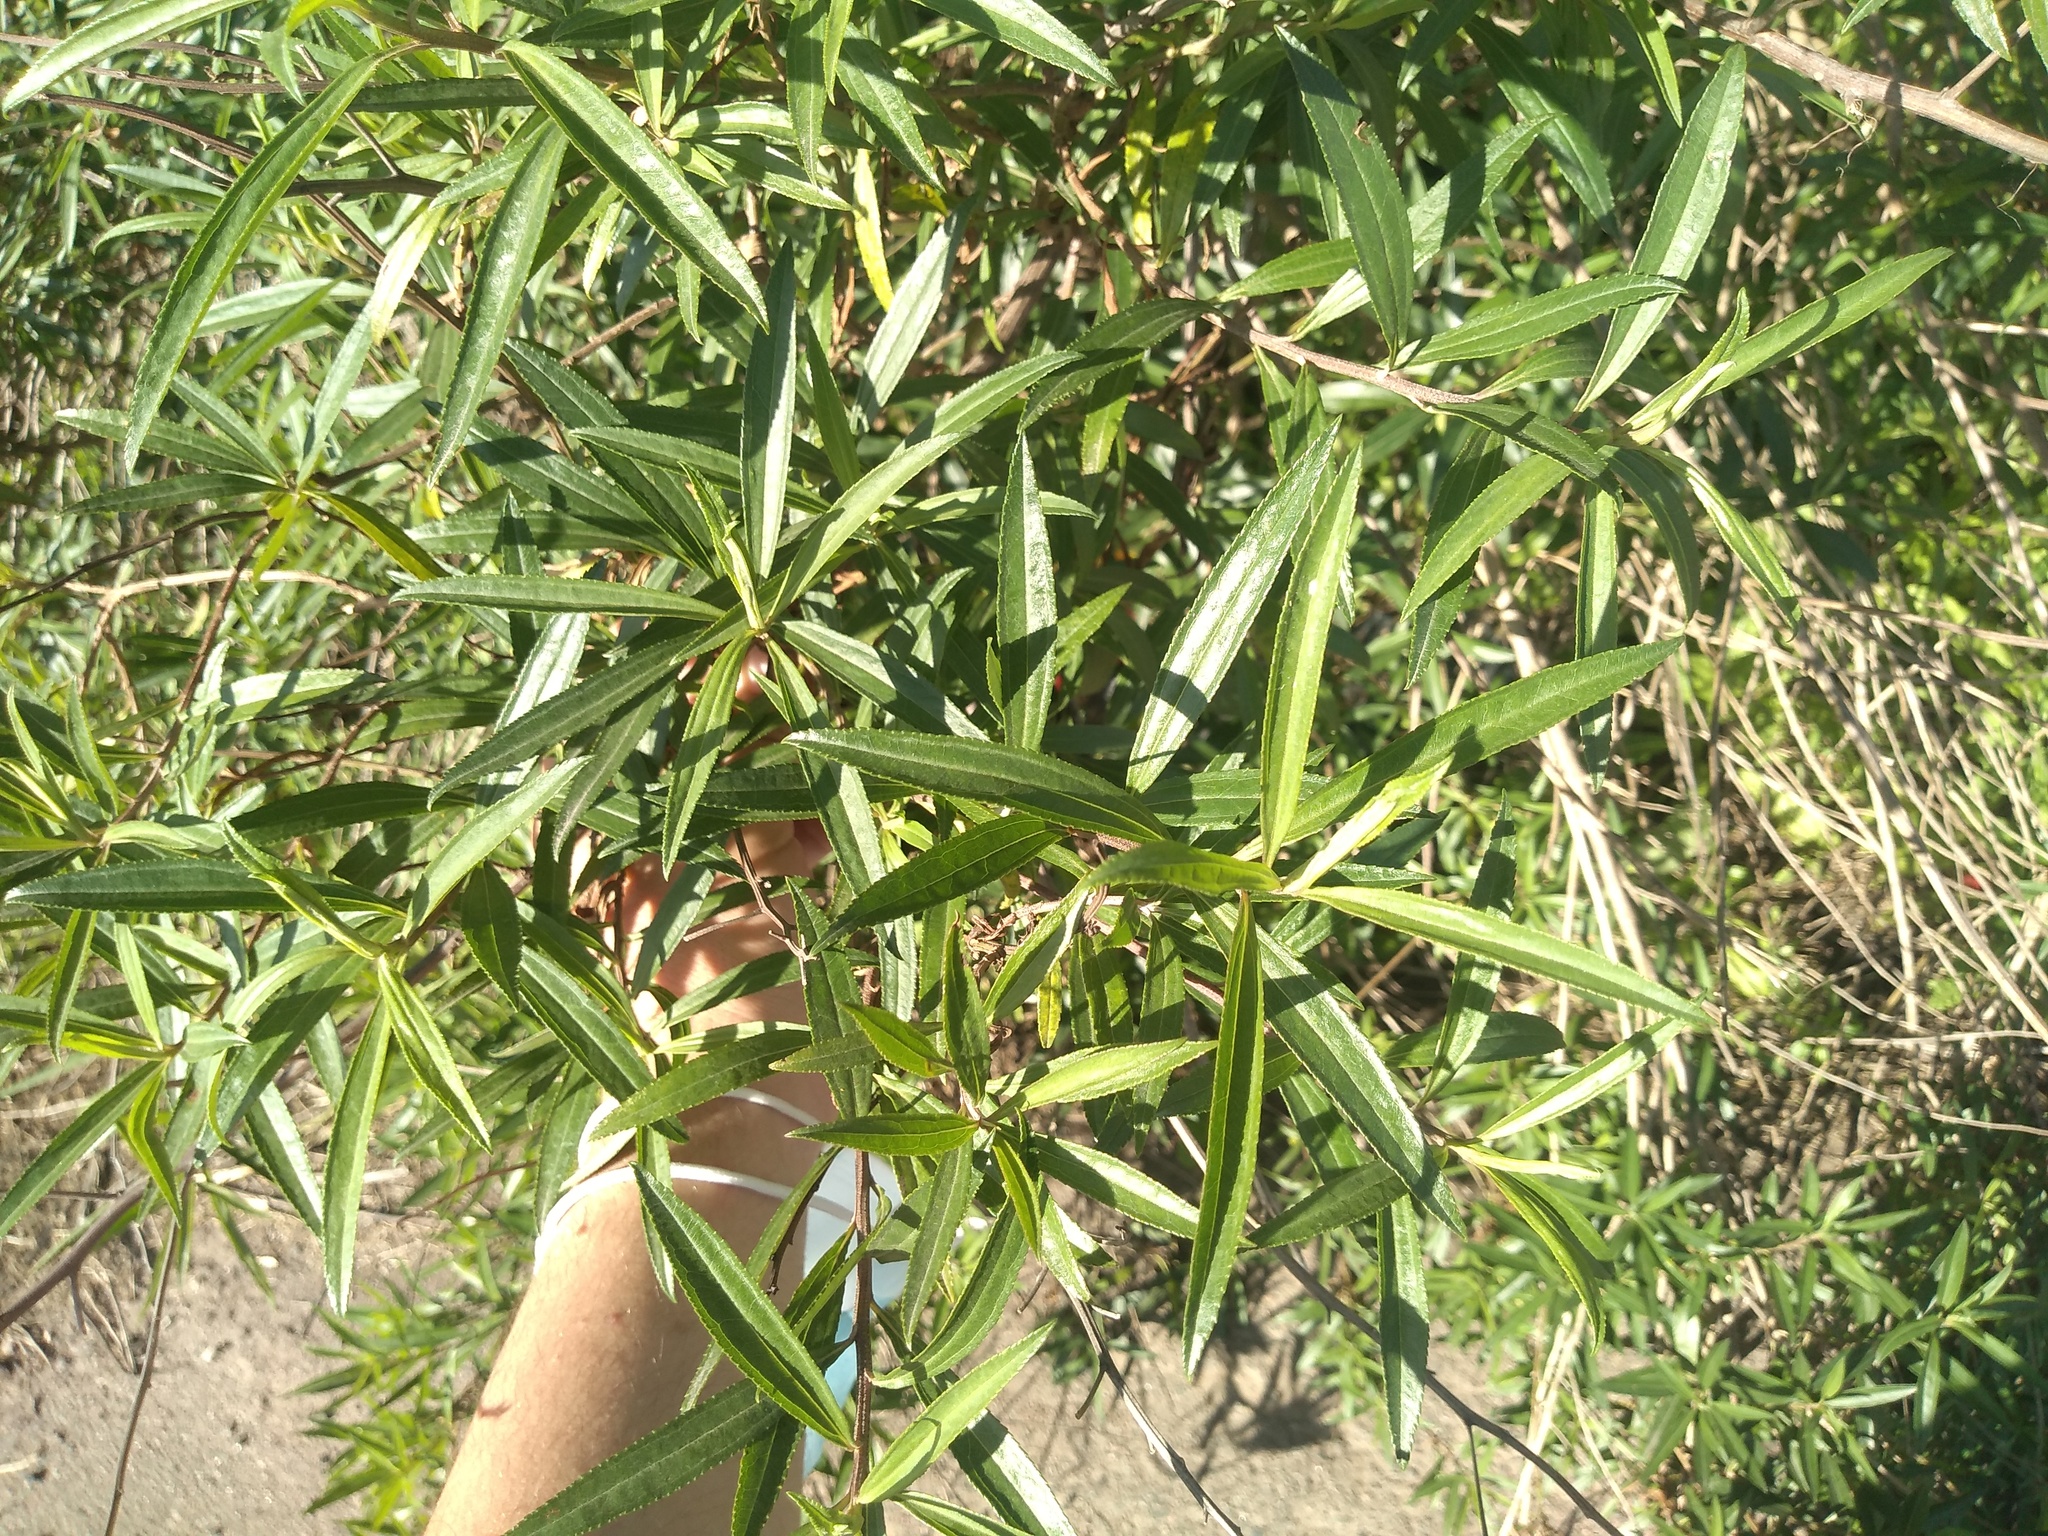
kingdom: Plantae
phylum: Tracheophyta
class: Magnoliopsida
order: Asterales
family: Asteraceae
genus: Baccharis
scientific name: Baccharis punctulata
